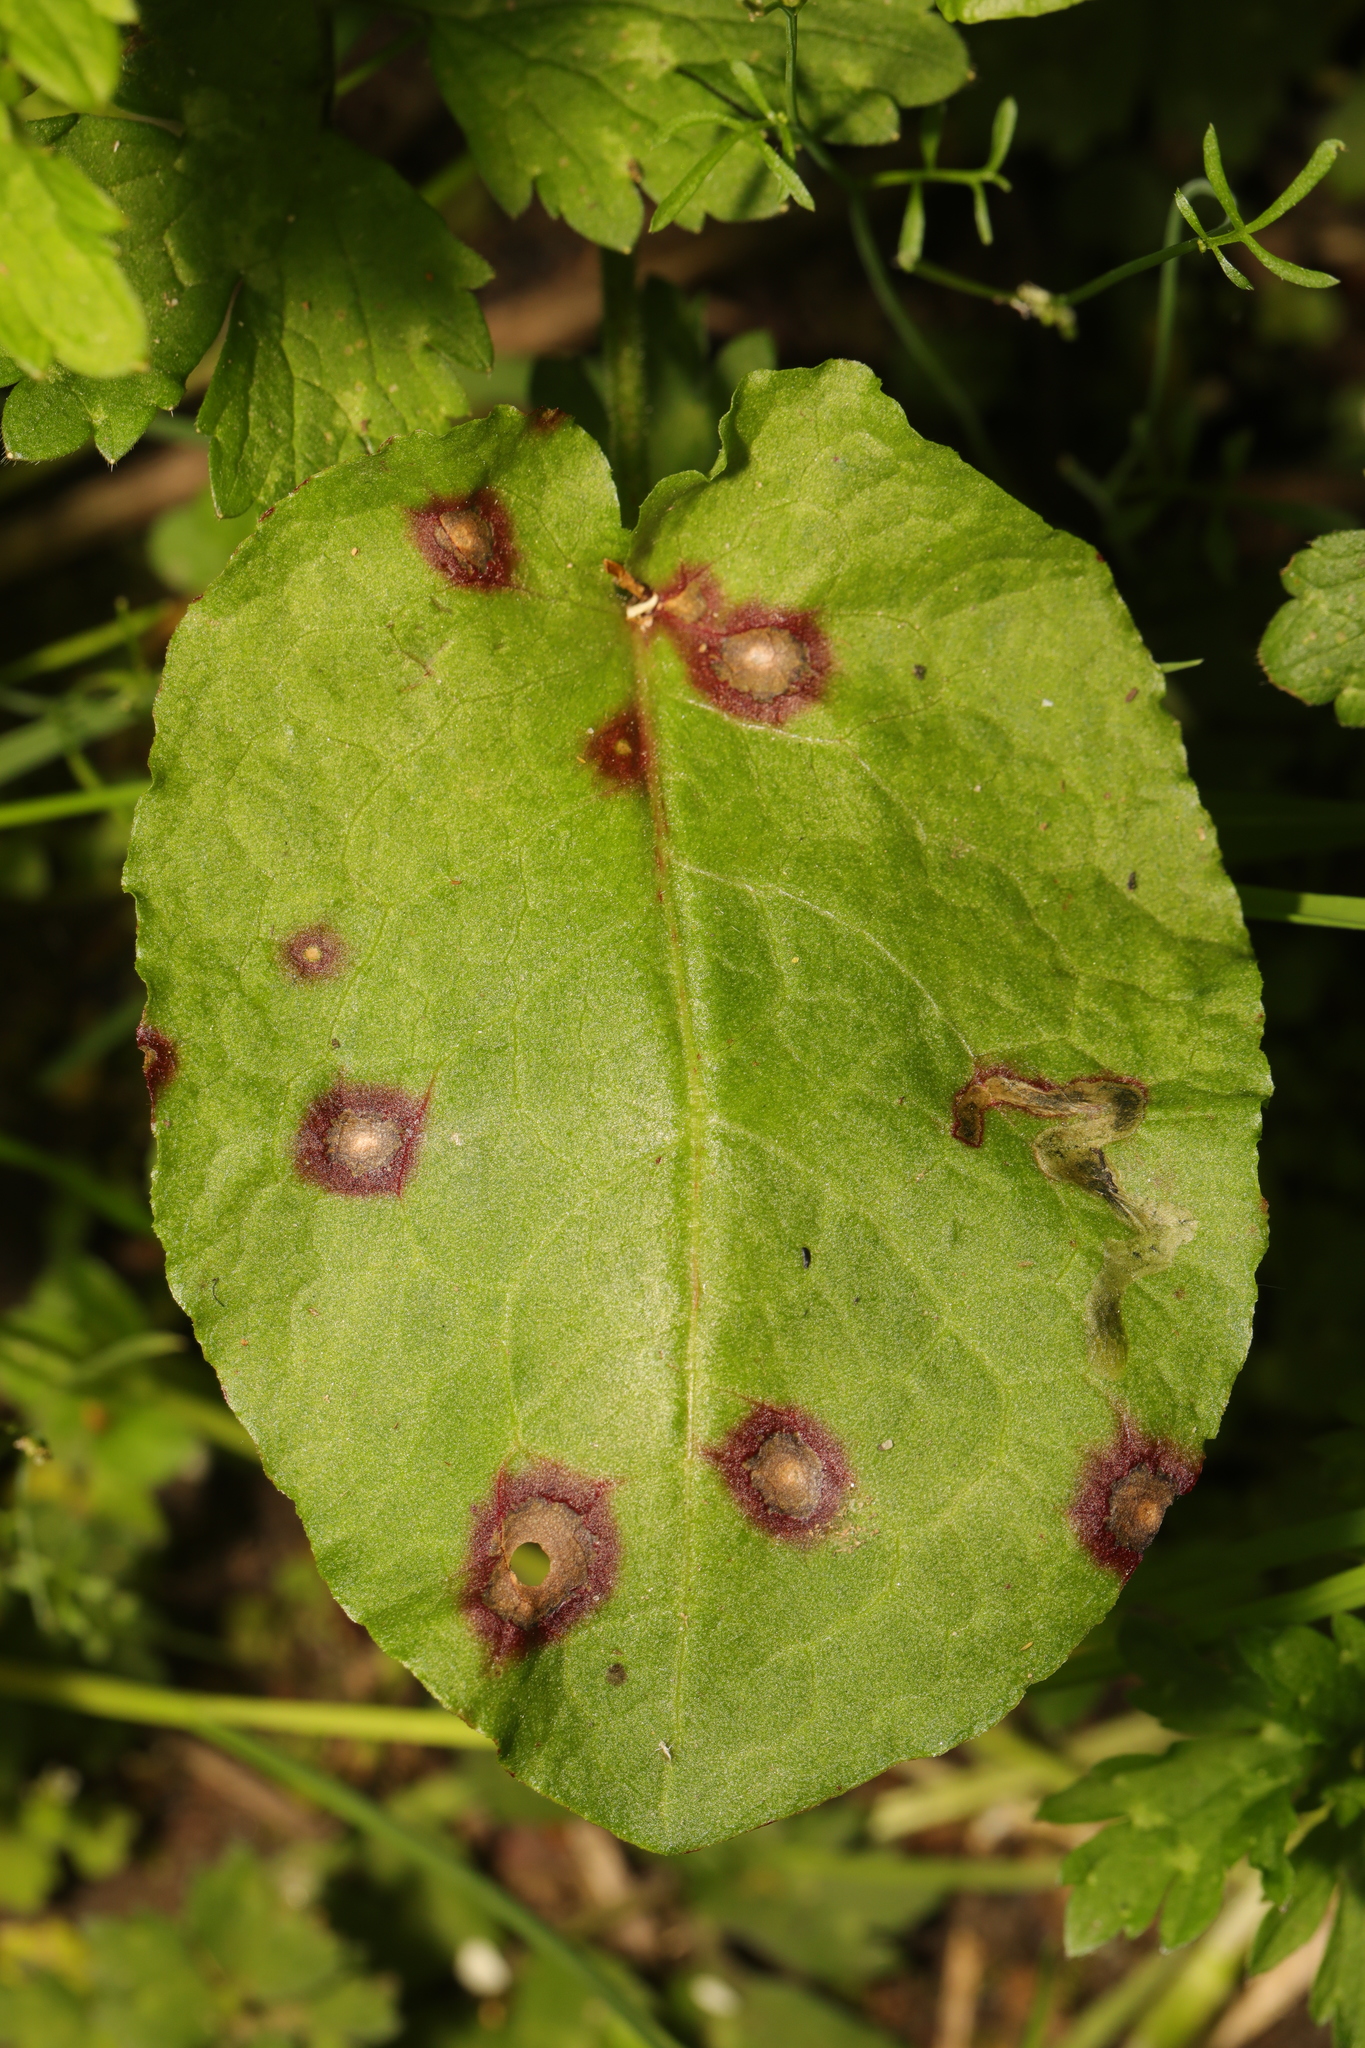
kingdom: Fungi
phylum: Ascomycota
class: Dothideomycetes
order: Mycosphaerellales
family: Mycosphaerellaceae
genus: Ramularia
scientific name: Ramularia rubella
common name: Red dock spot
